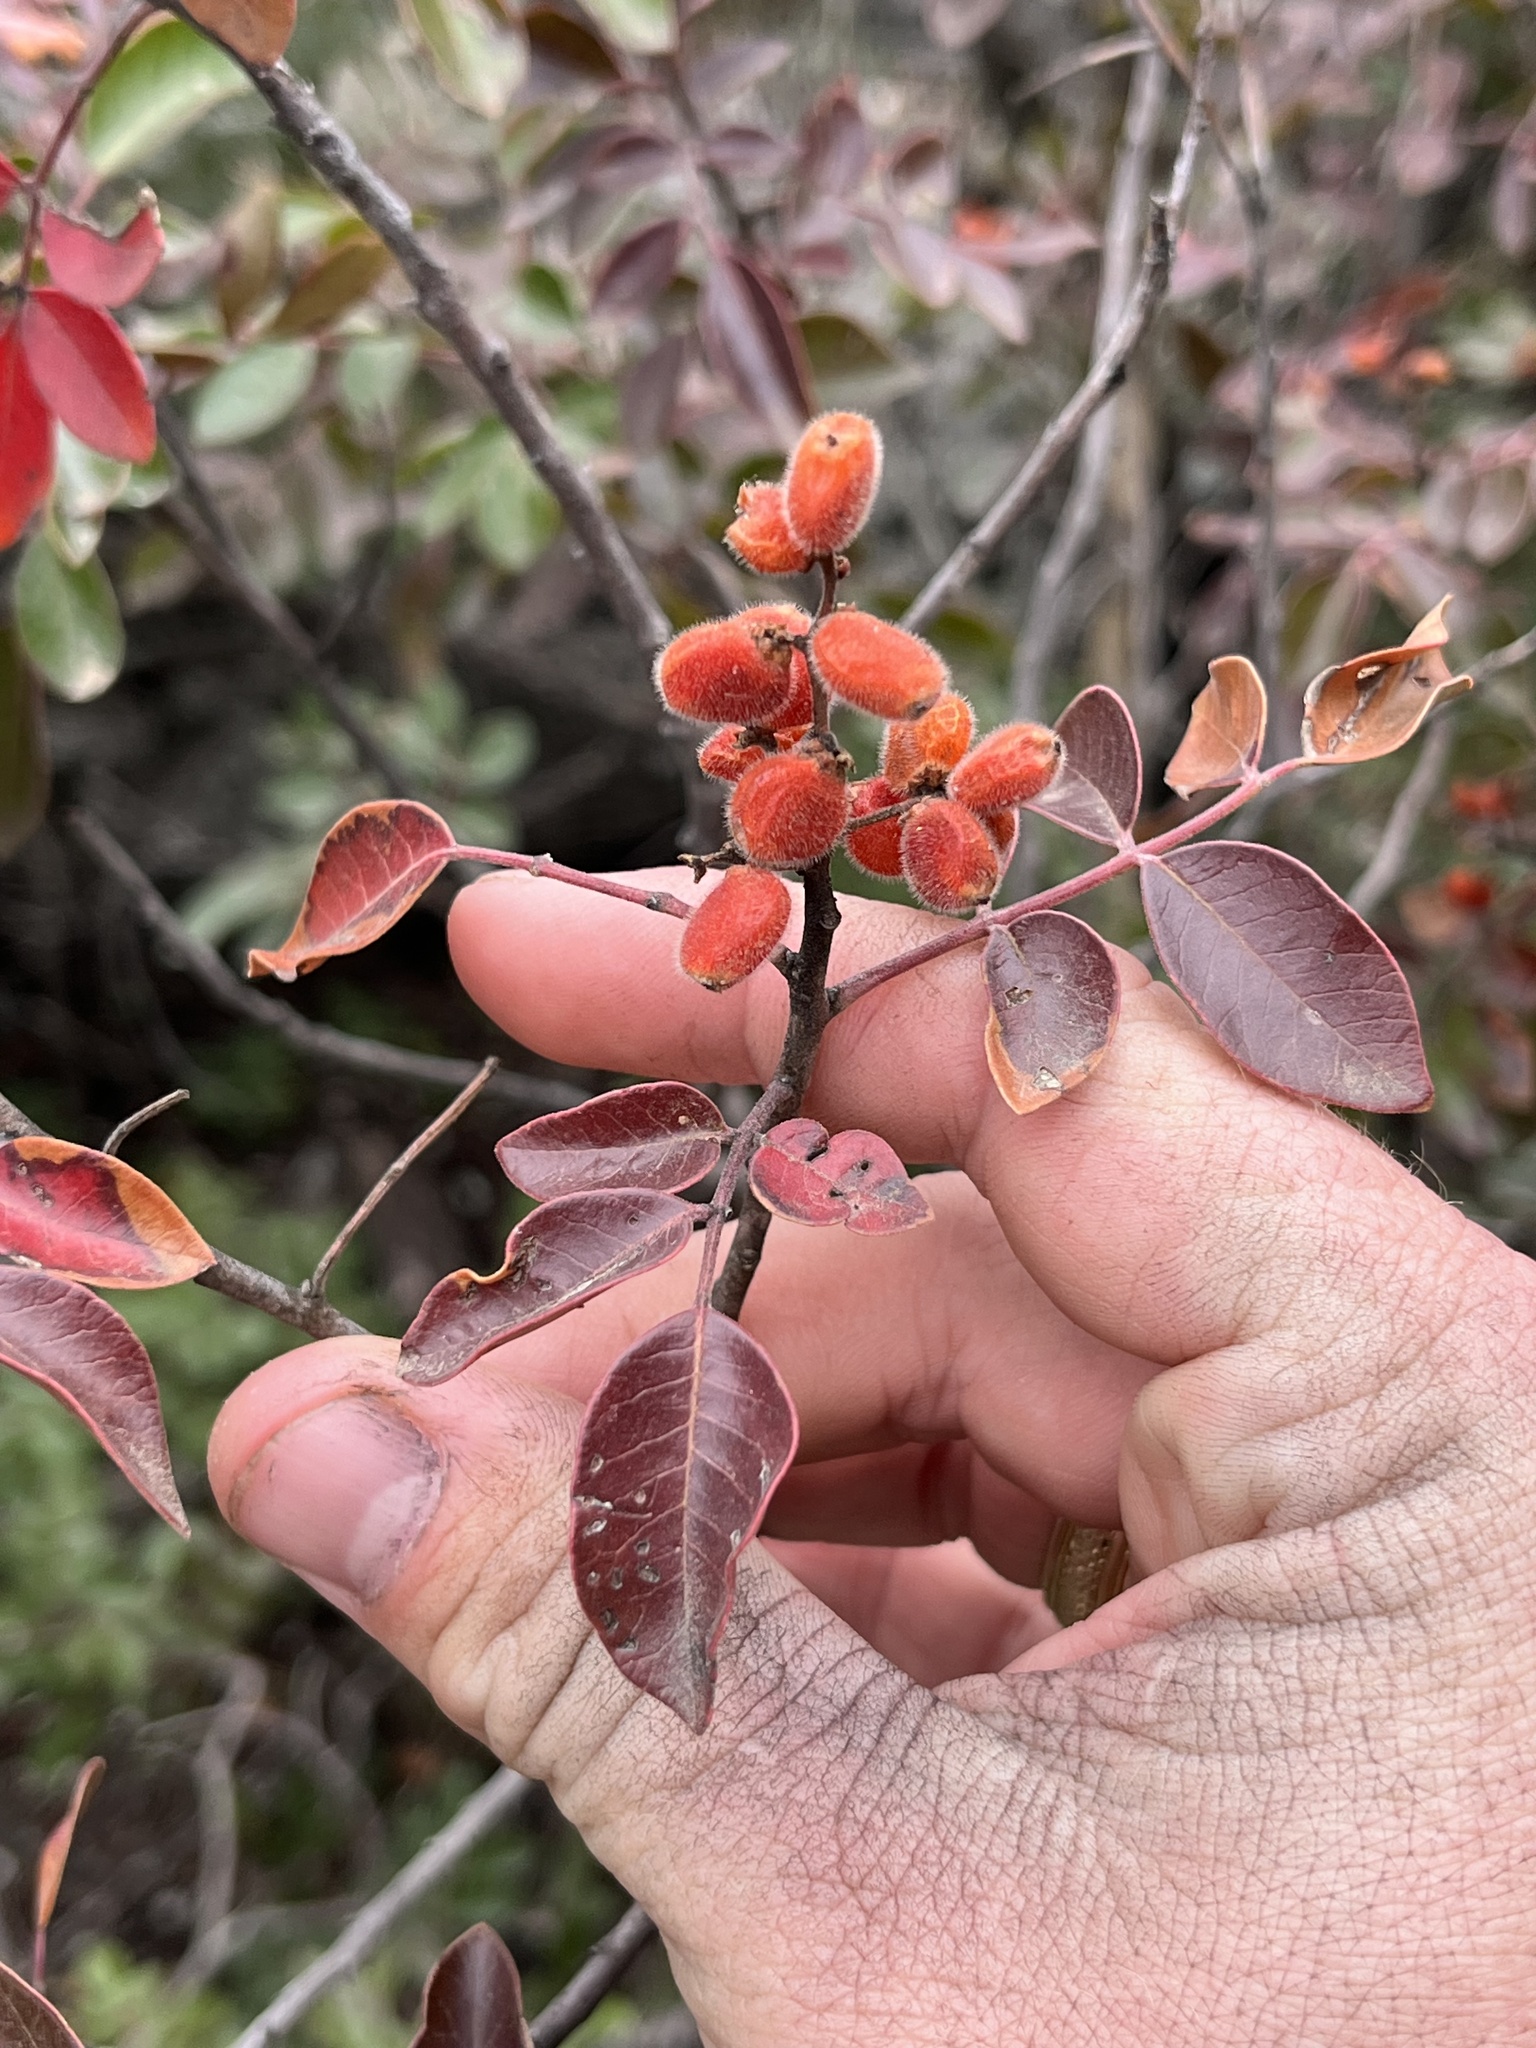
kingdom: Plantae
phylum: Tracheophyta
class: Magnoliopsida
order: Sapindales
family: Anacardiaceae
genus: Rhus
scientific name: Rhus virens
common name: Evergreen sumac
